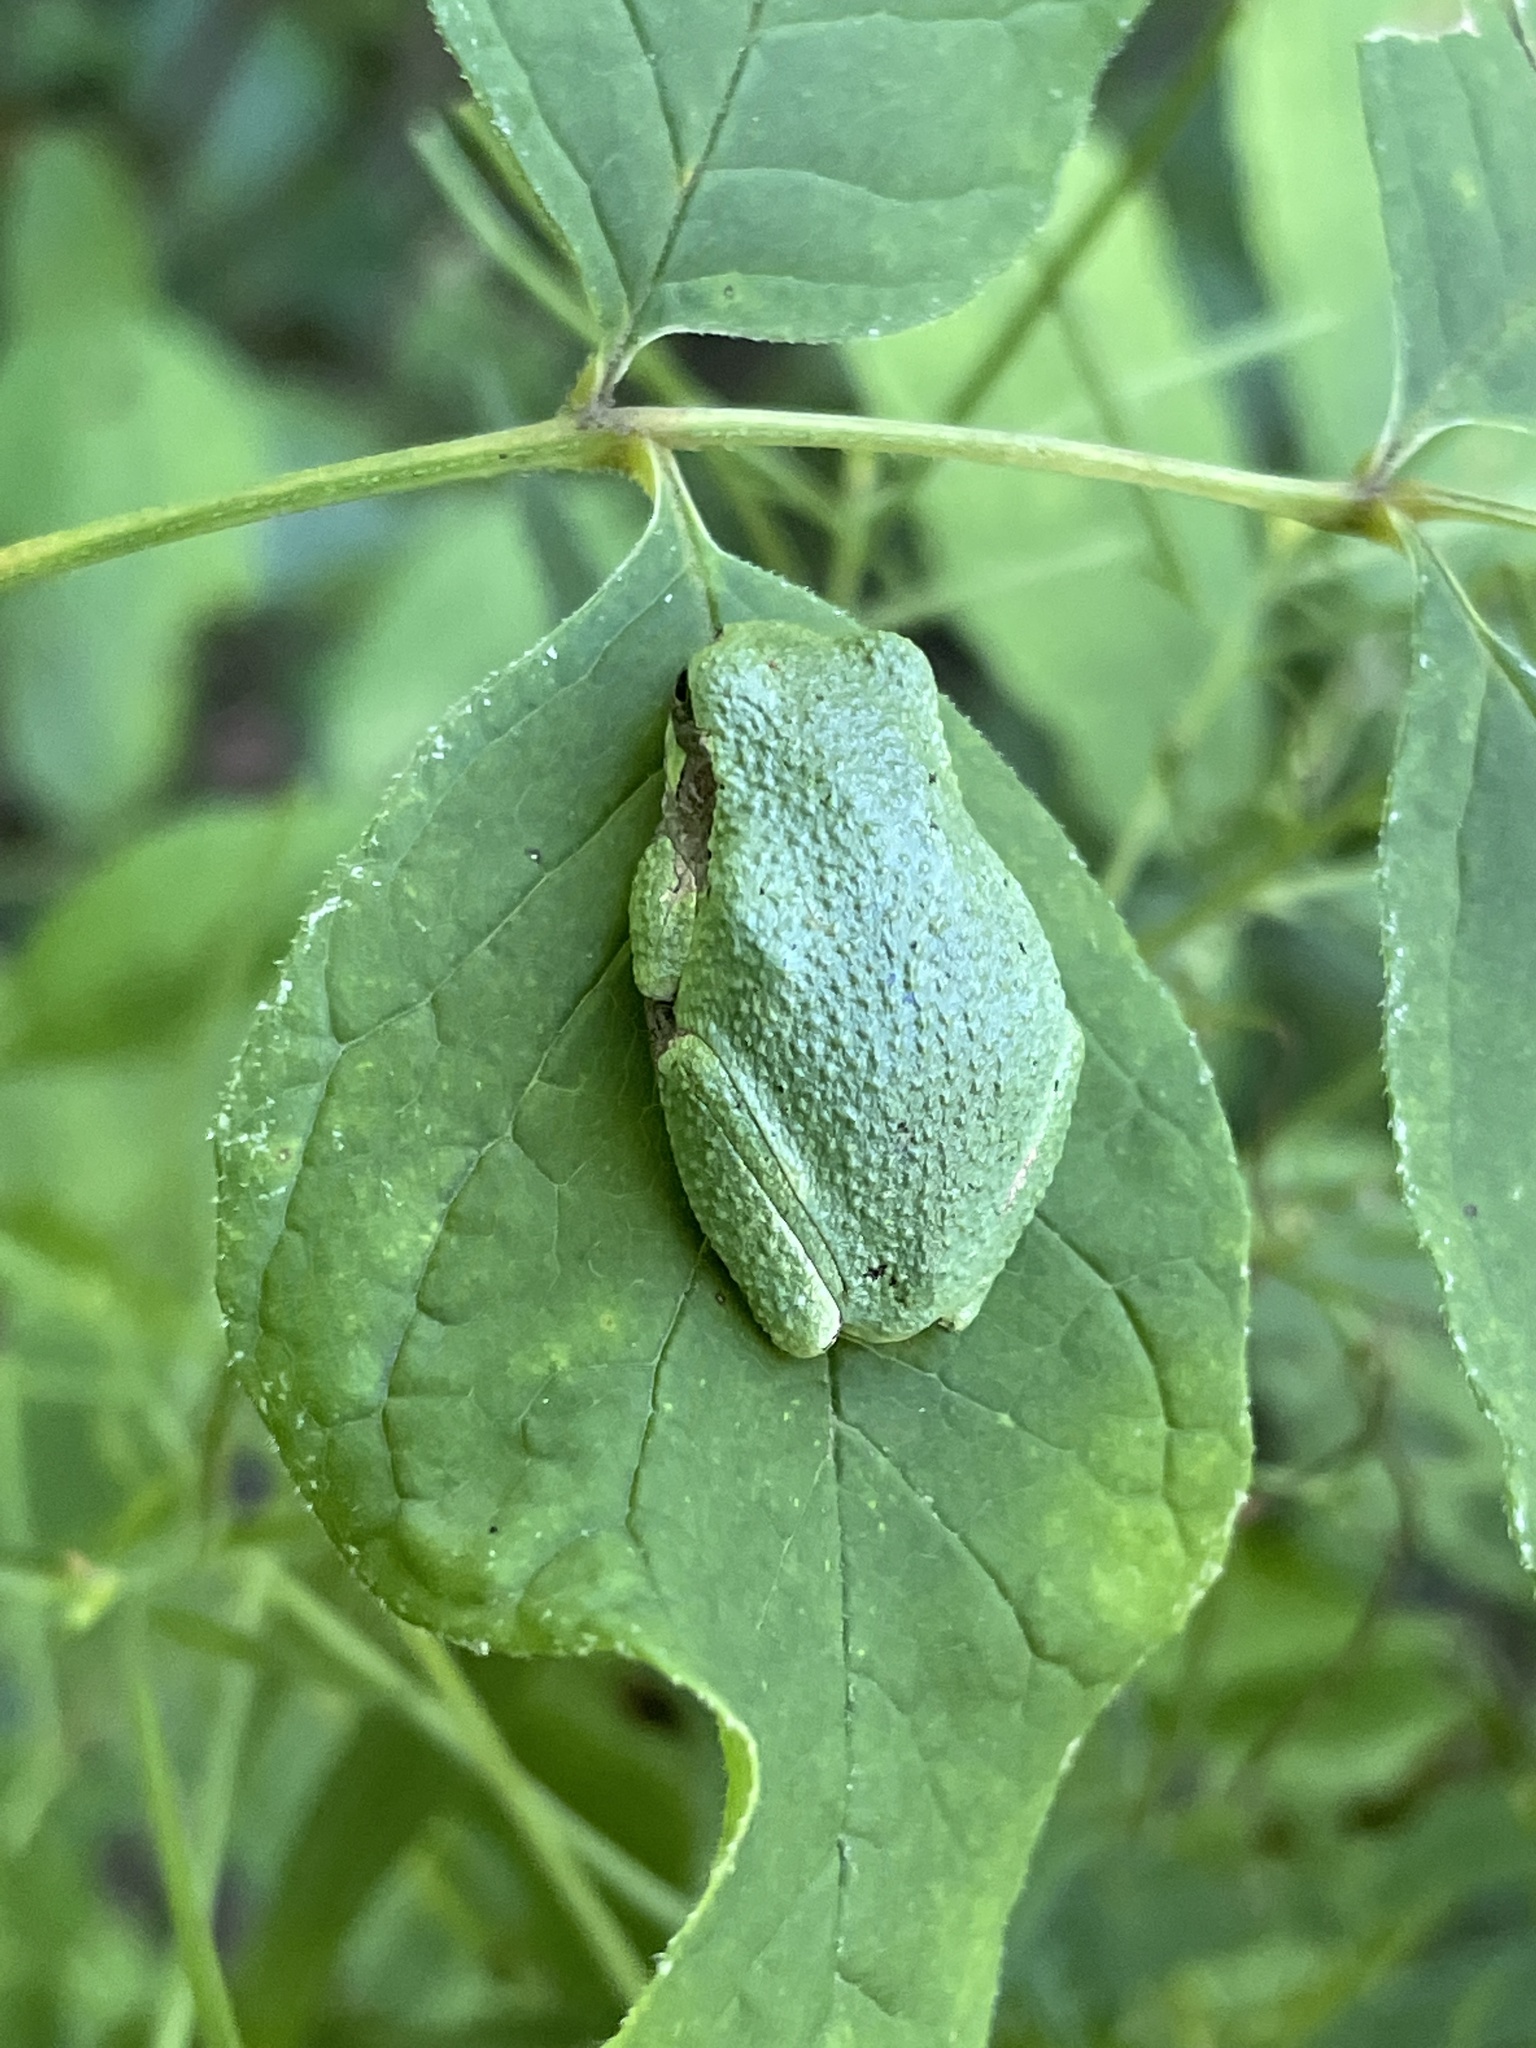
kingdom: Animalia
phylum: Chordata
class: Amphibia
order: Anura
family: Hylidae
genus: Dryophytes
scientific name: Dryophytes versicolor
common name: Gray treefrog
